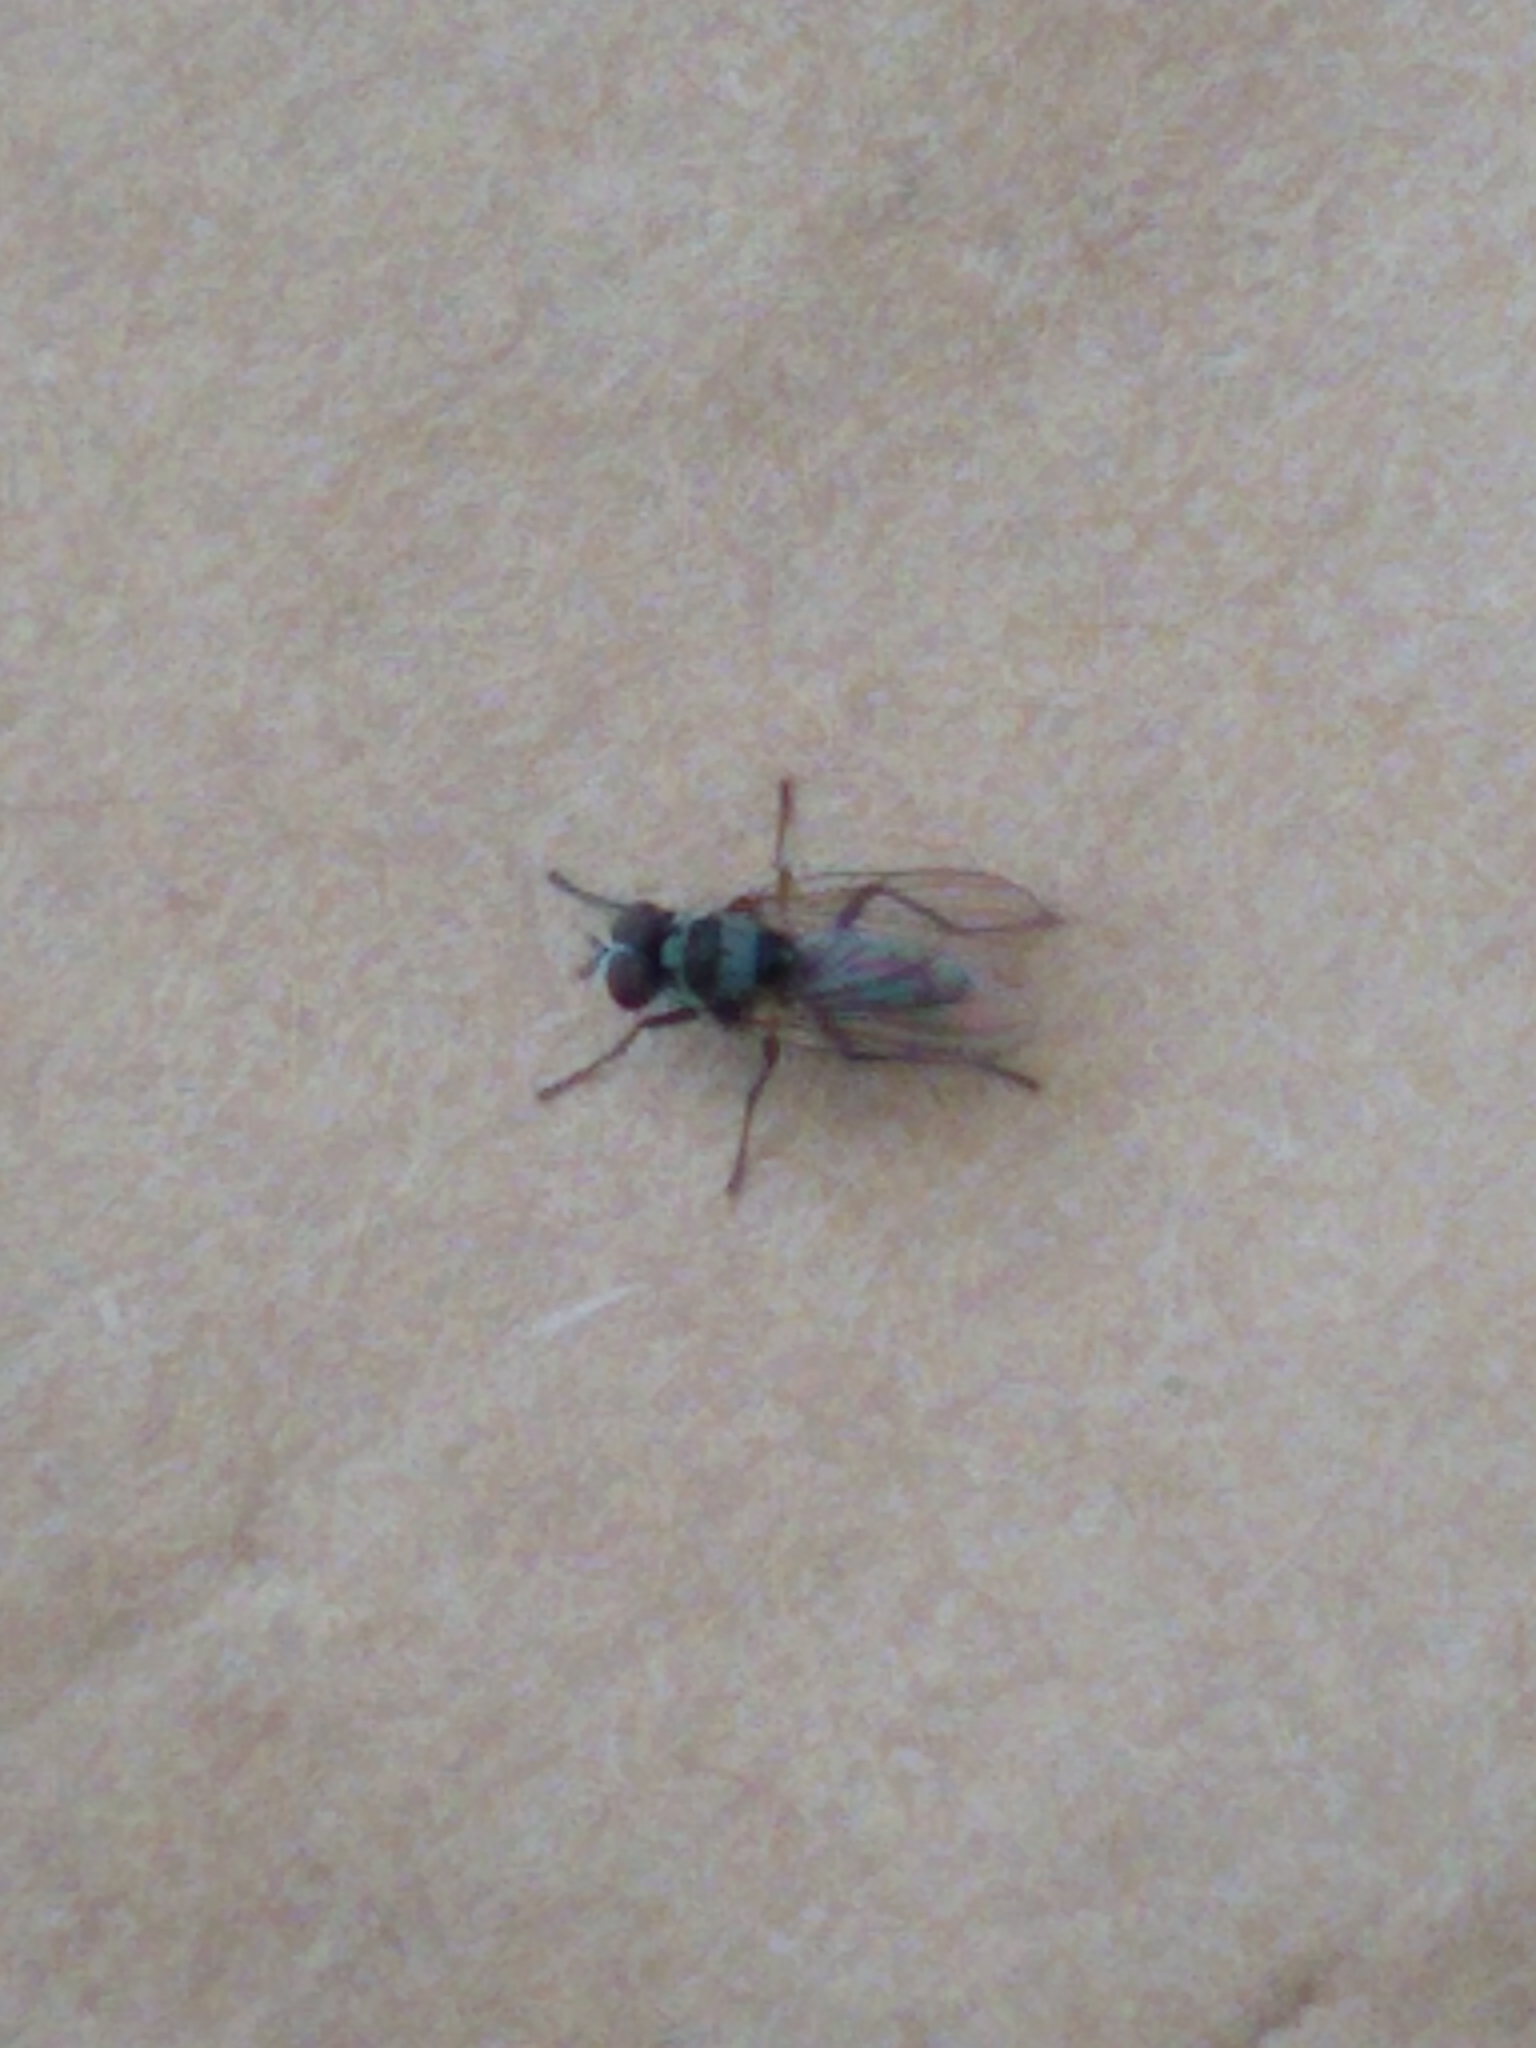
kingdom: Animalia
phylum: Arthropoda
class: Insecta
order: Diptera
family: Anthomyiidae
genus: Anthomyia
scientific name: Anthomyia oculifera
